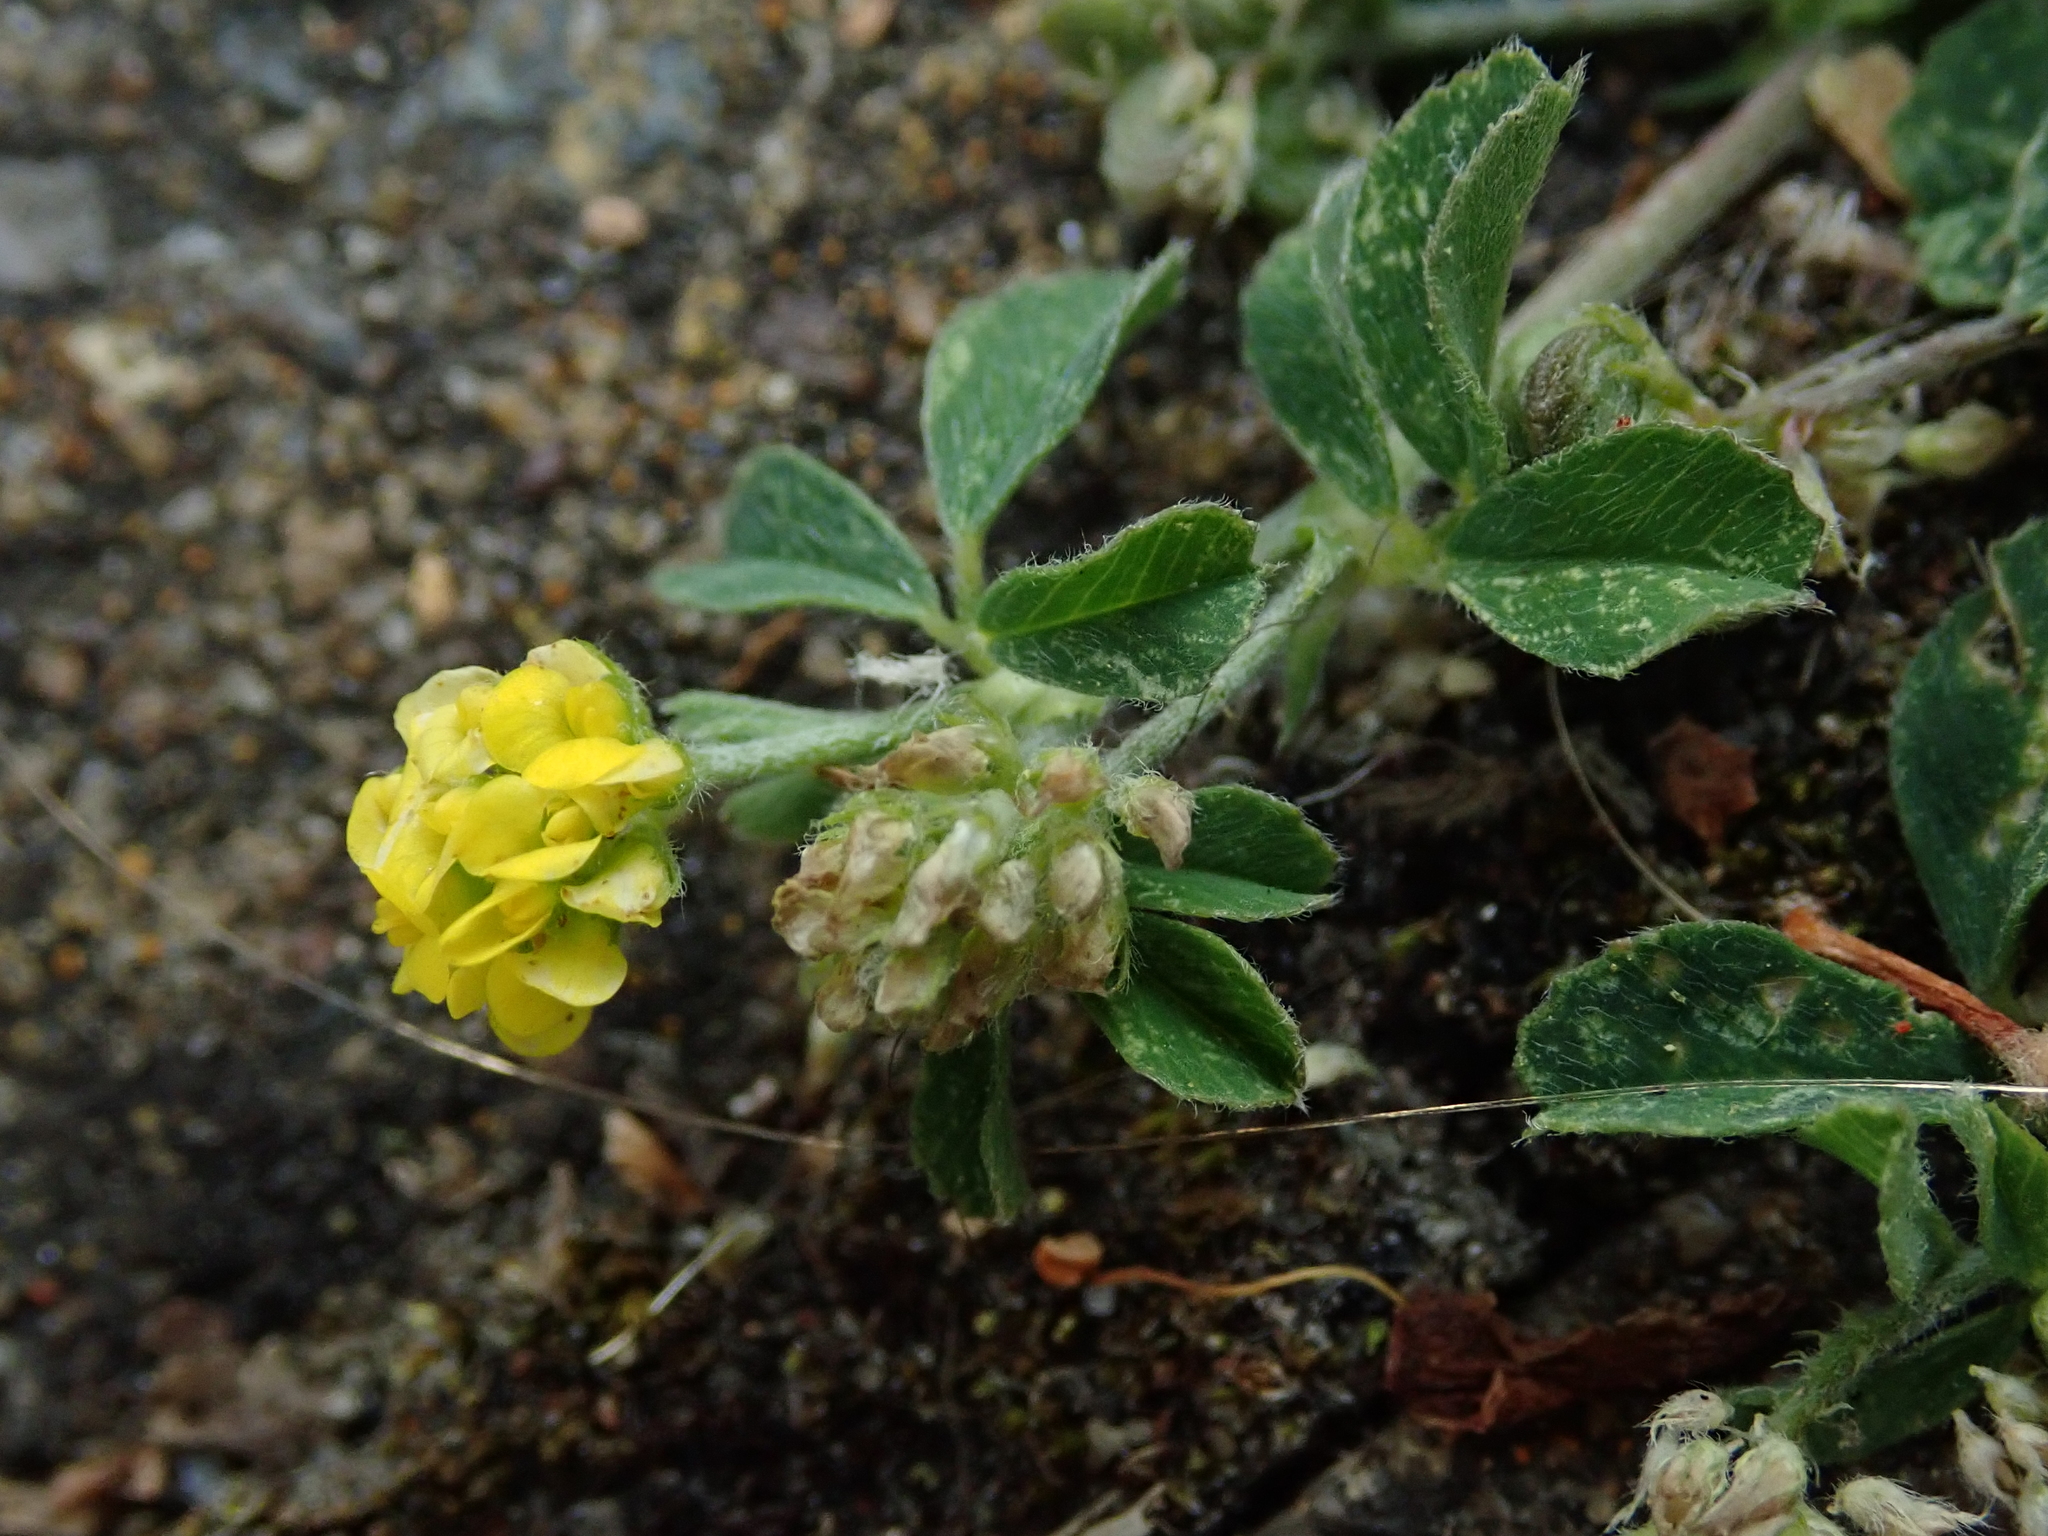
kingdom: Plantae
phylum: Tracheophyta
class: Magnoliopsida
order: Fabales
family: Fabaceae
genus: Medicago
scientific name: Medicago lupulina
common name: Black medick
